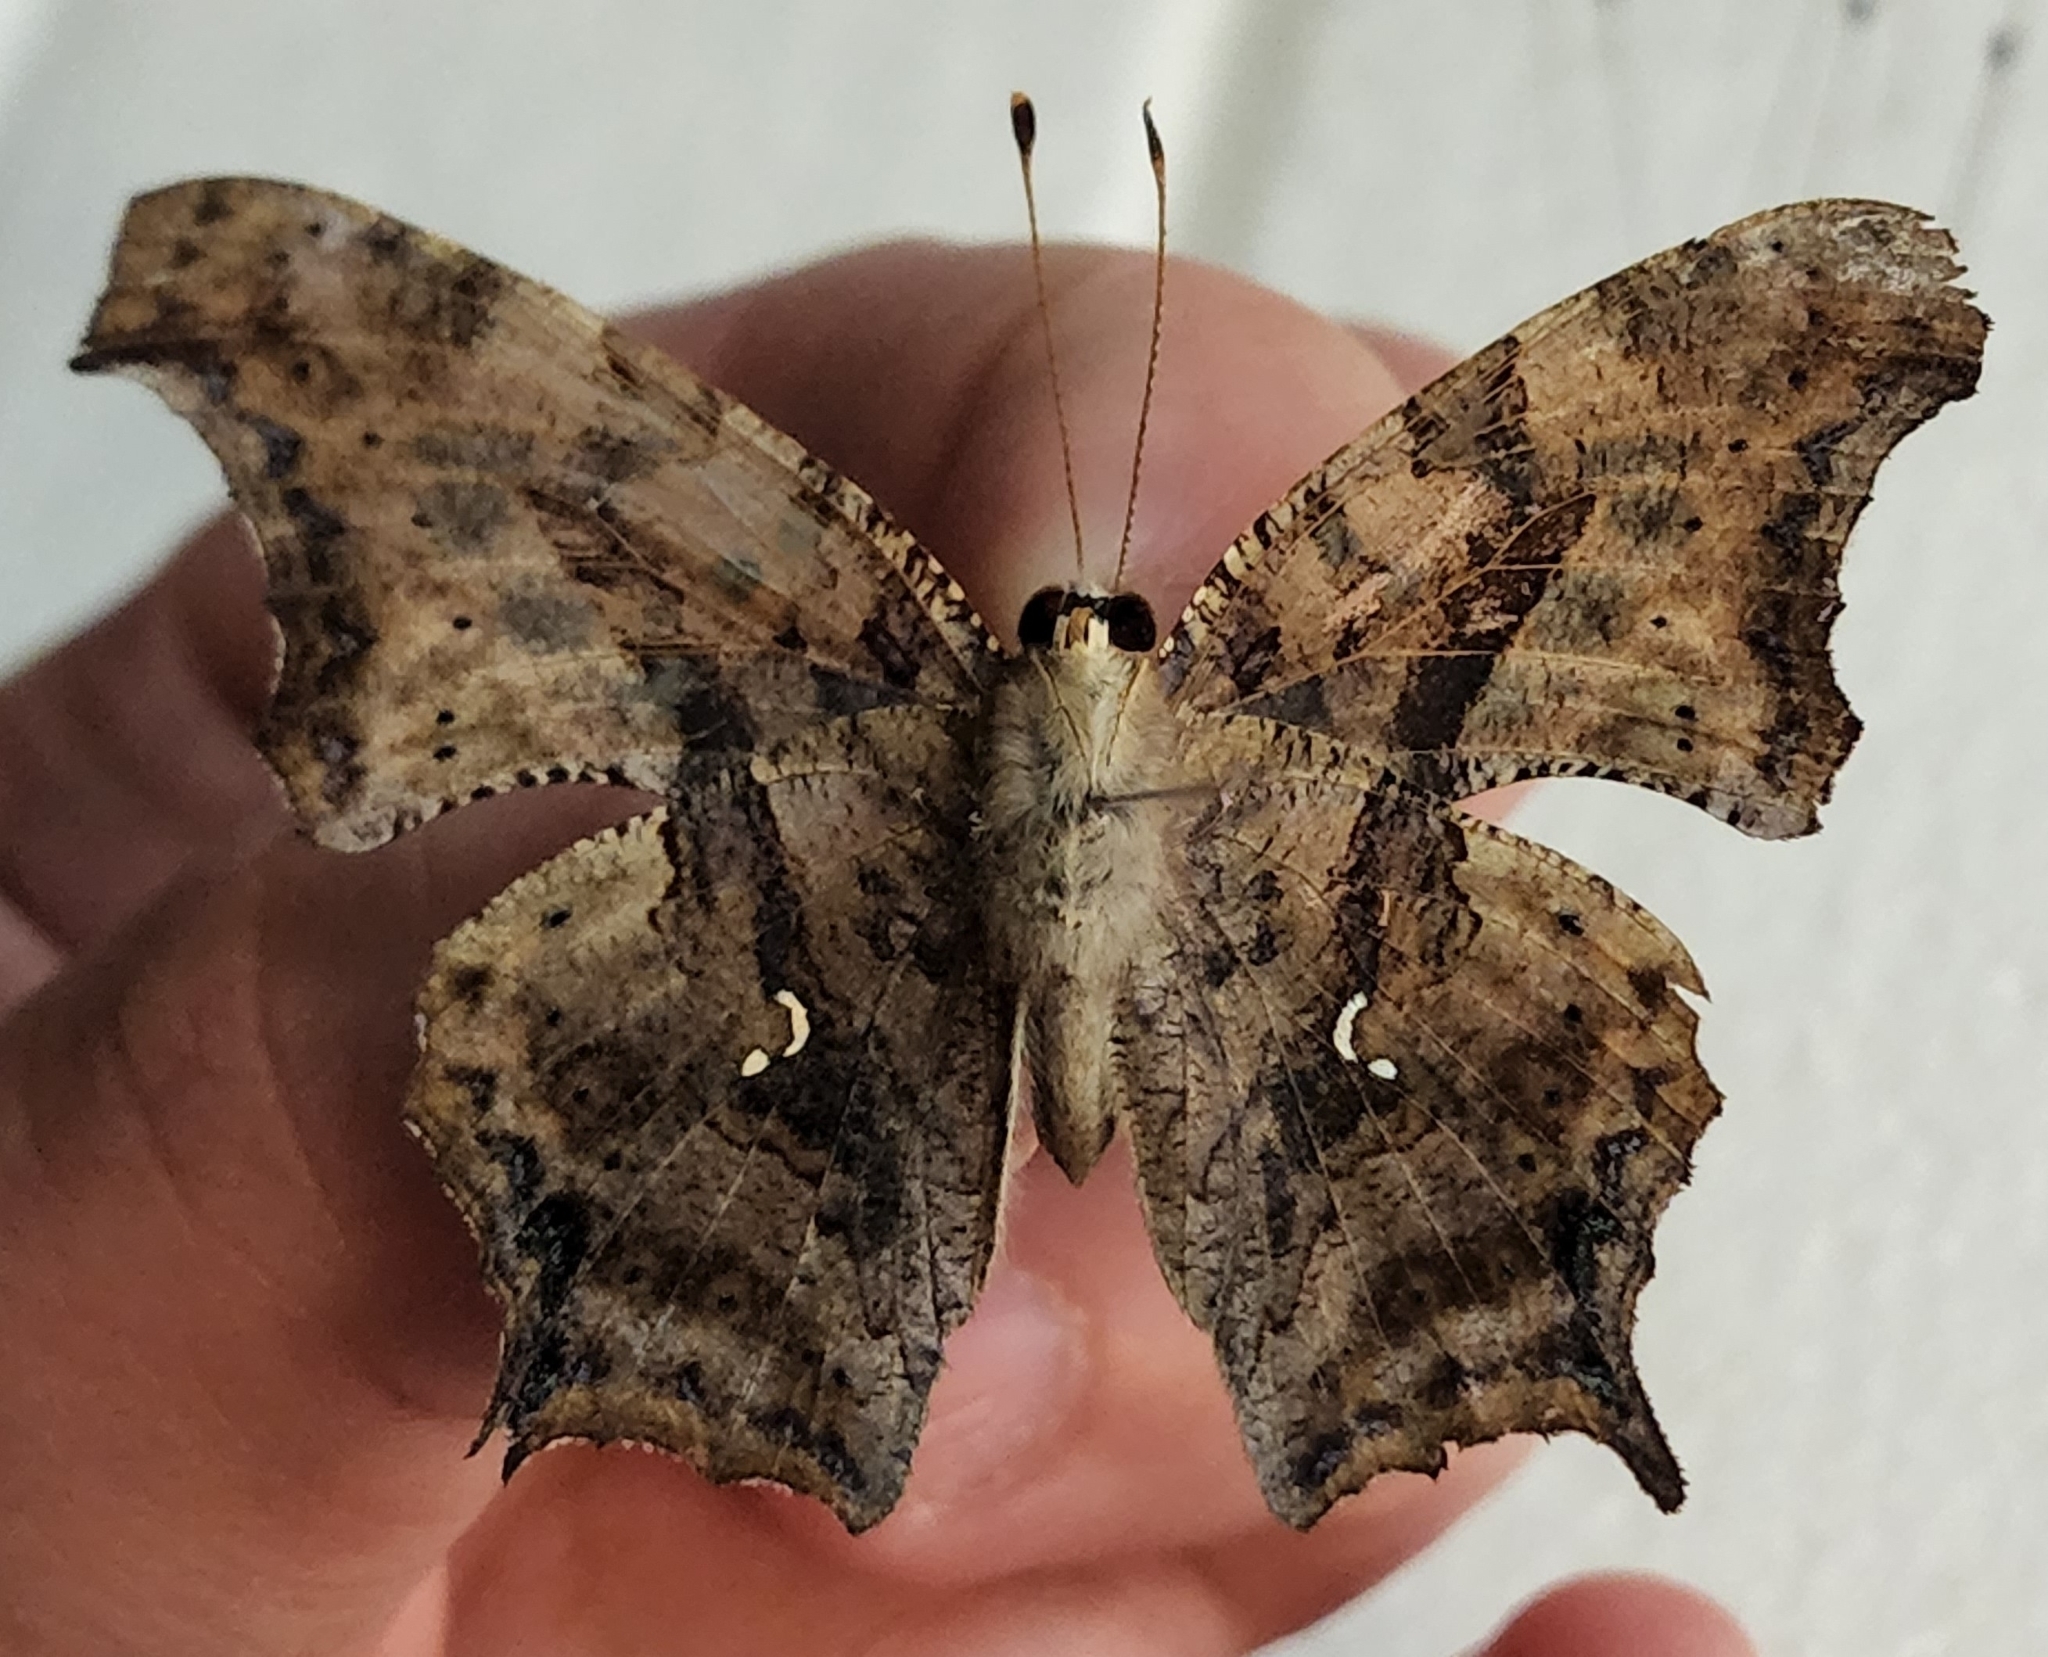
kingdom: Animalia
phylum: Arthropoda
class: Insecta
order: Lepidoptera
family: Nymphalidae
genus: Polygonia
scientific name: Polygonia interrogationis
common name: Question mark
